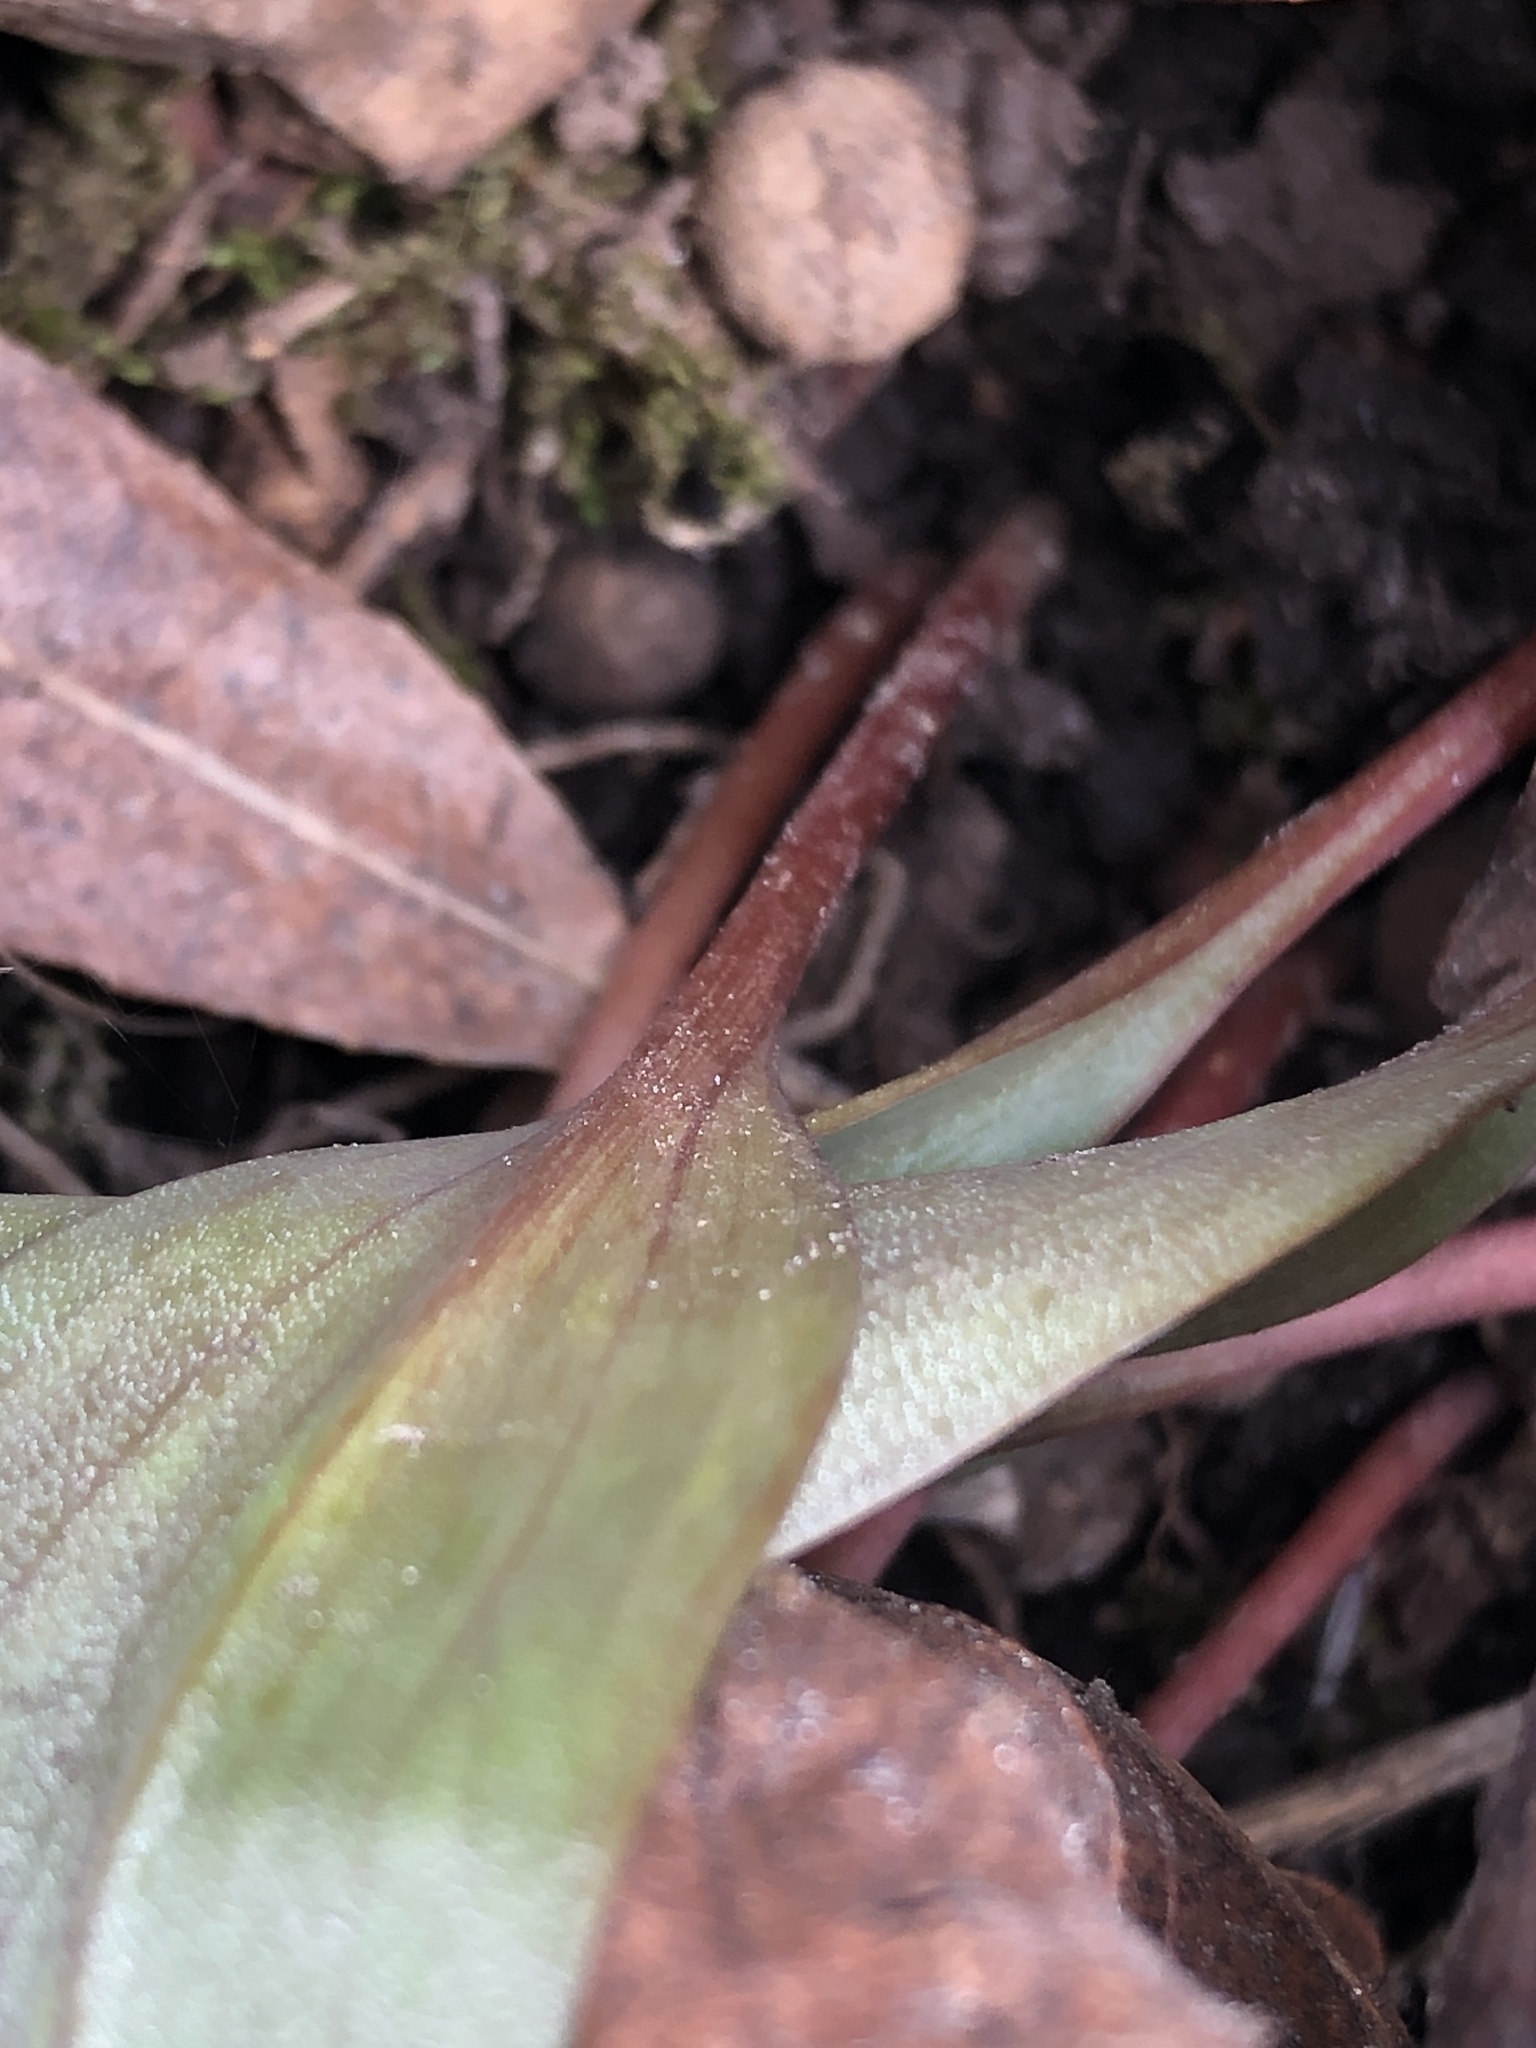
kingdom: Plantae
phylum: Tracheophyta
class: Liliopsida
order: Liliales
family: Liliaceae
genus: Erythronium
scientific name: Erythronium americanum
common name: Yellow adder's-tongue
